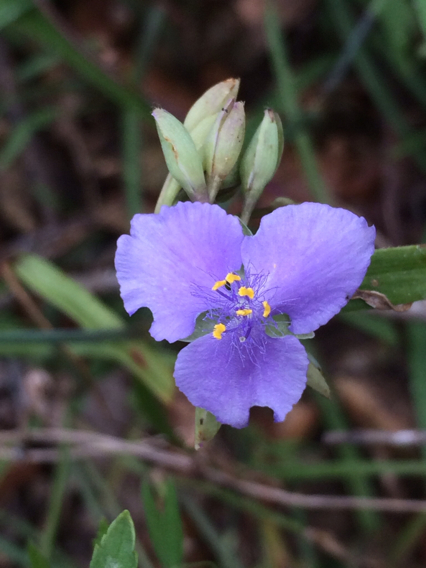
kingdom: Plantae
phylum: Tracheophyta
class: Liliopsida
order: Commelinales
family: Commelinaceae
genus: Tradescantia
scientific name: Tradescantia occidentalis
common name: Prairie spiderwort
